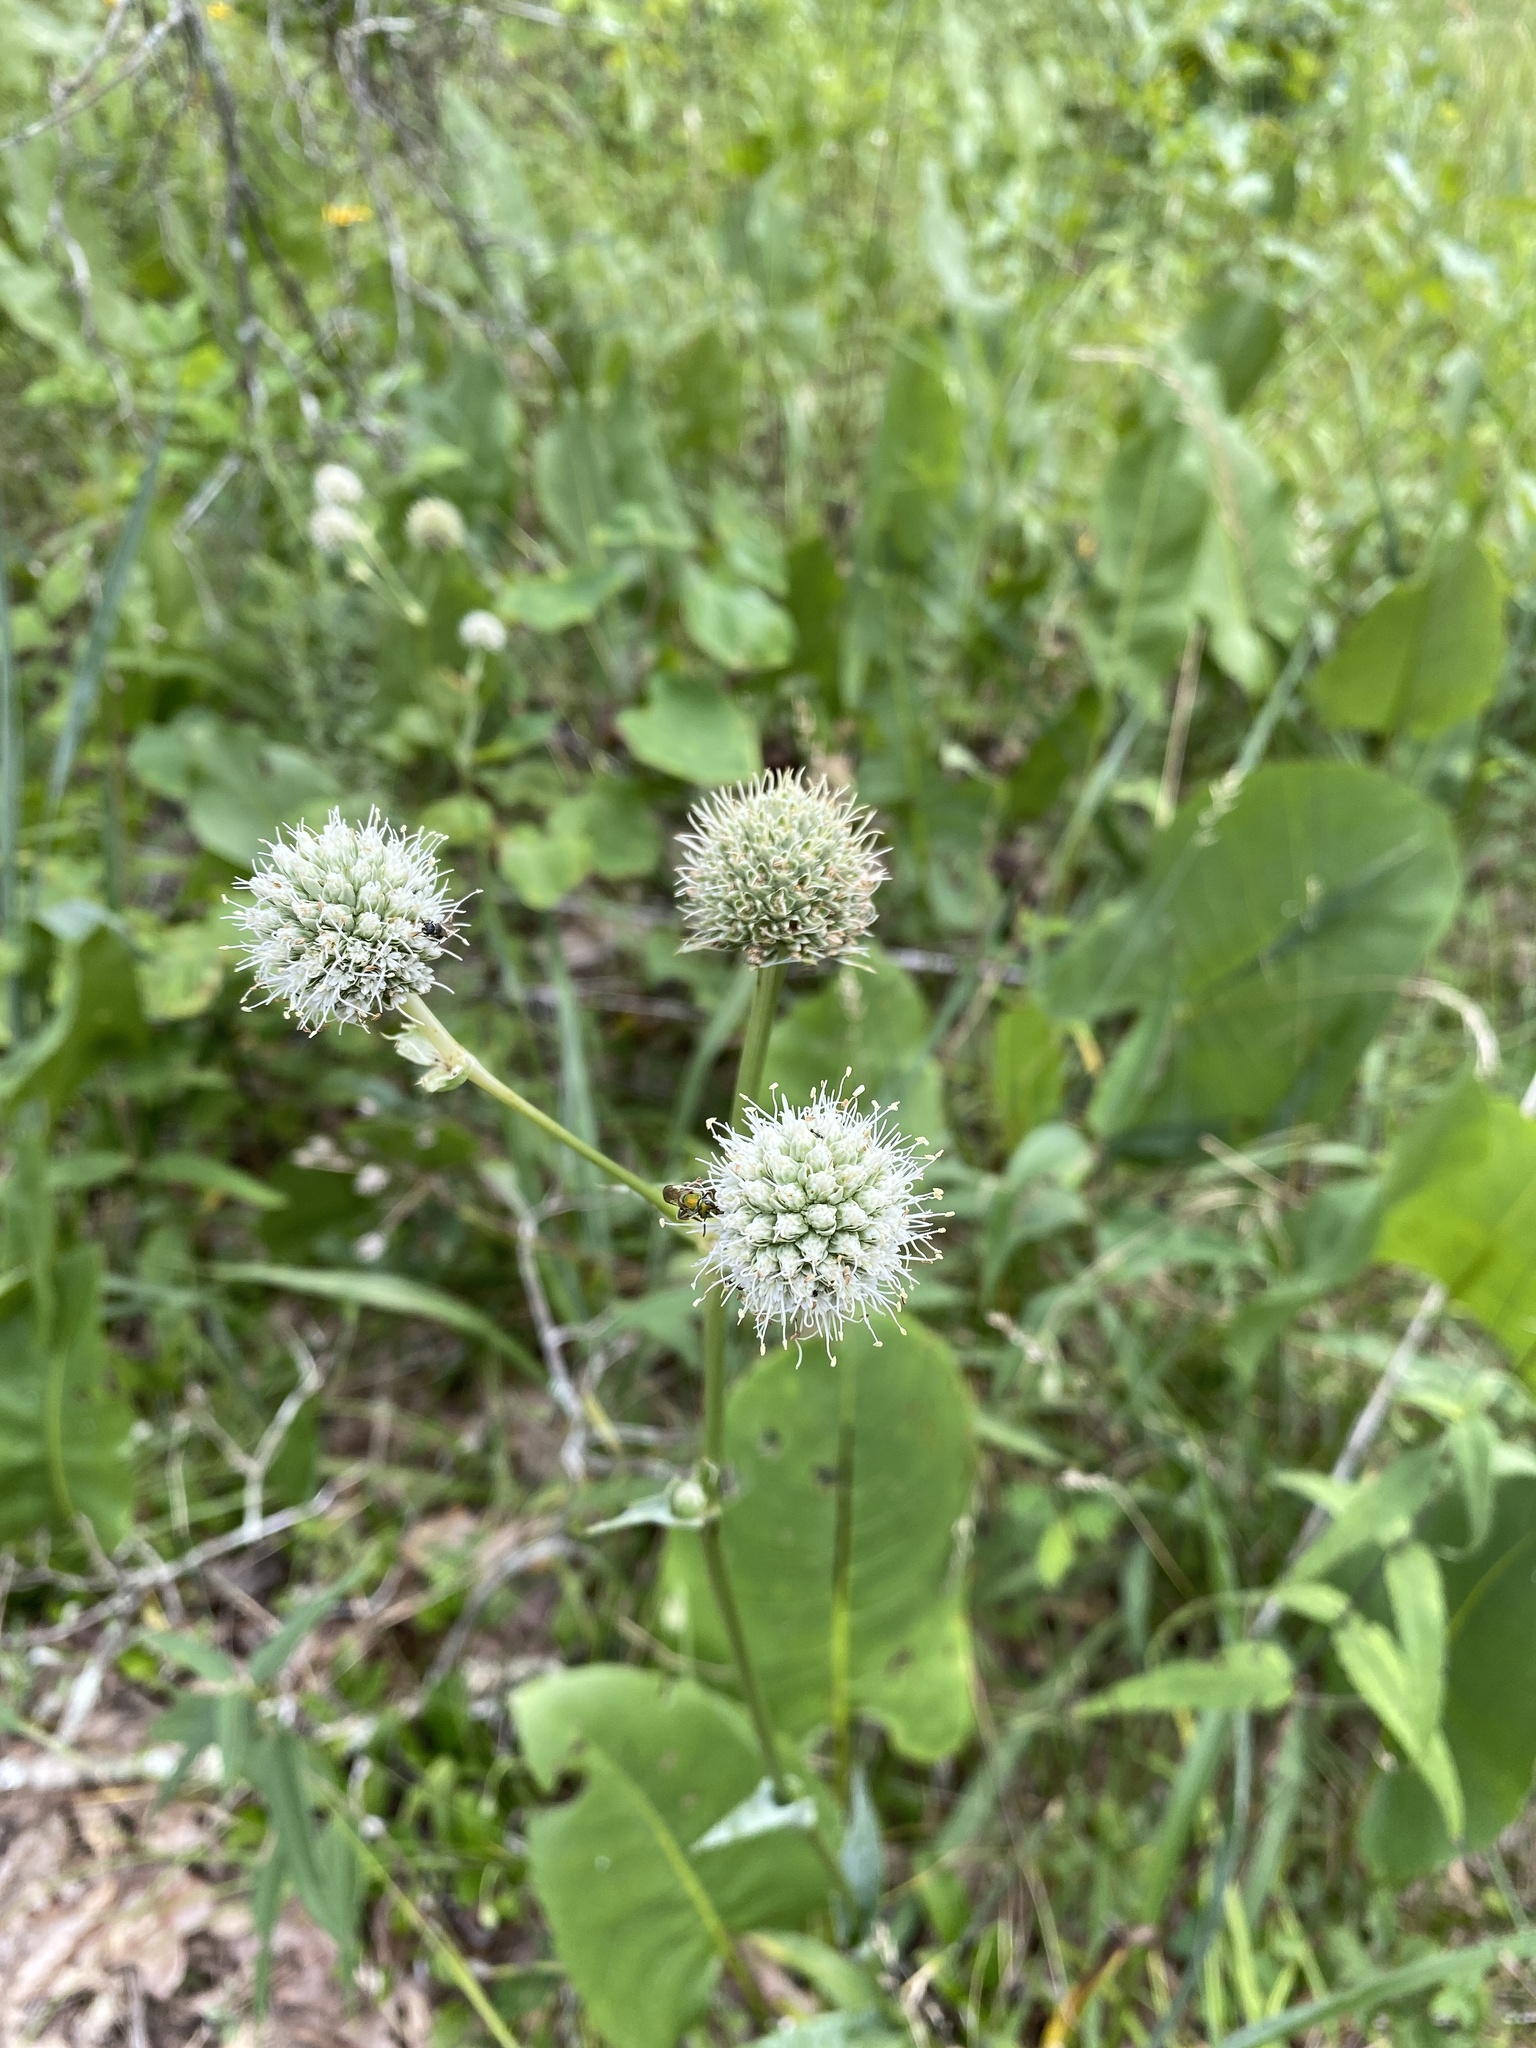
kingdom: Plantae
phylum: Tracheophyta
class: Magnoliopsida
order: Apiales
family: Apiaceae
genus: Eryngium
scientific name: Eryngium yuccifolium
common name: Button eryngo
